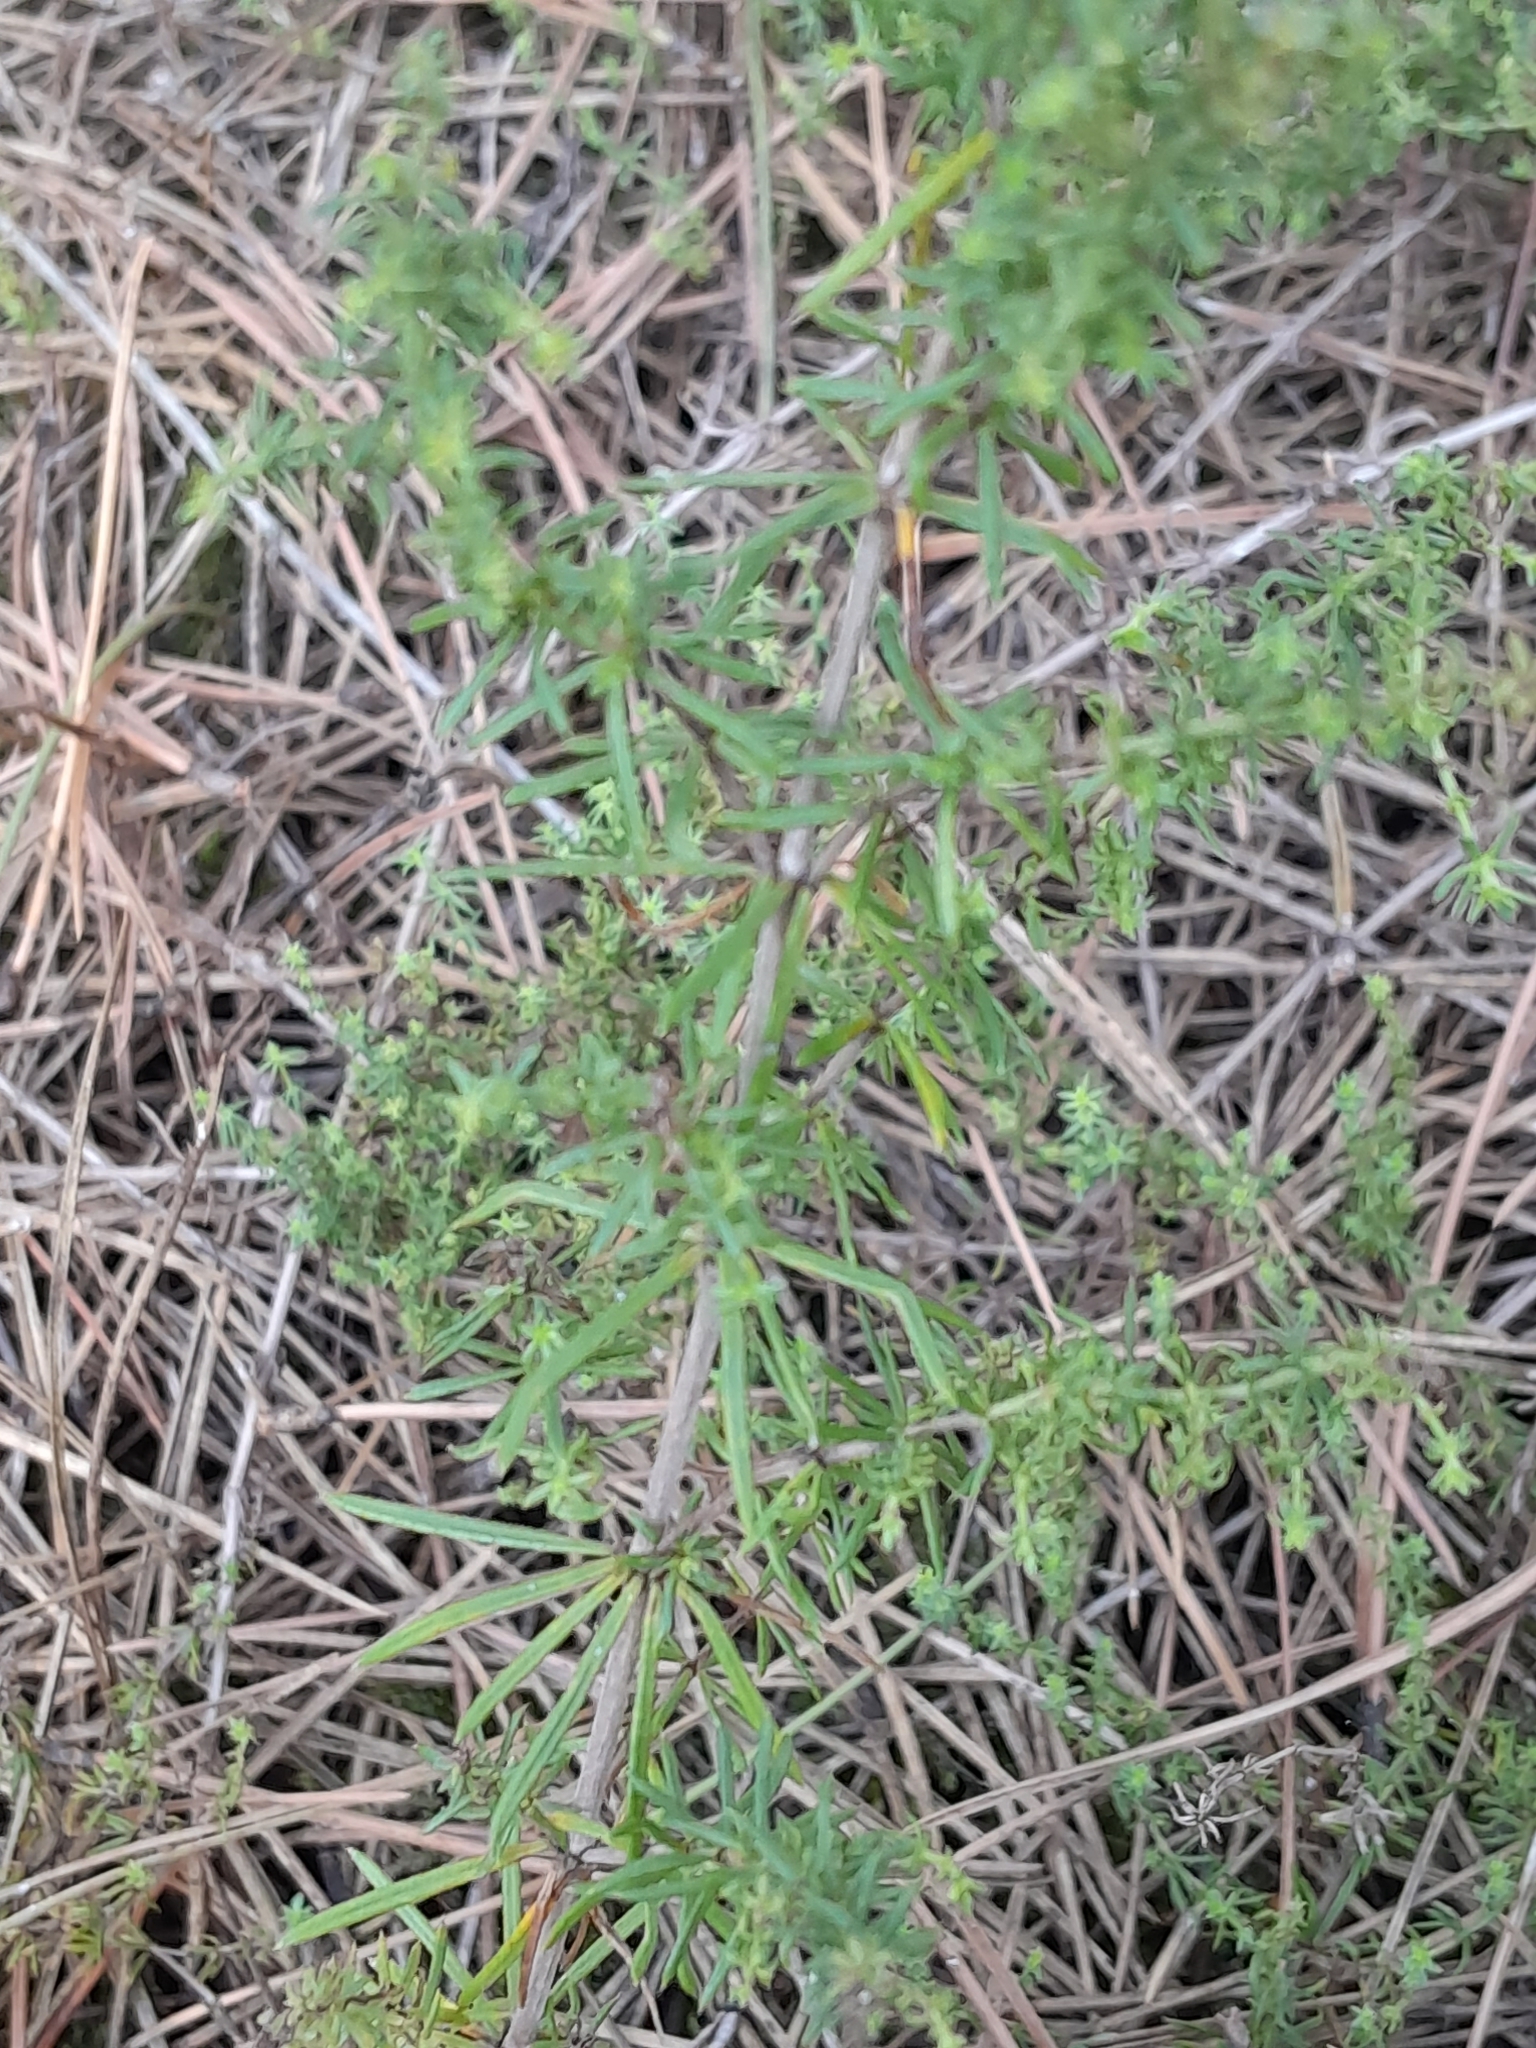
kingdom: Plantae
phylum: Tracheophyta
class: Magnoliopsida
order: Gentianales
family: Rubiaceae
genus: Galium
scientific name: Galium verum
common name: Lady's bedstraw
